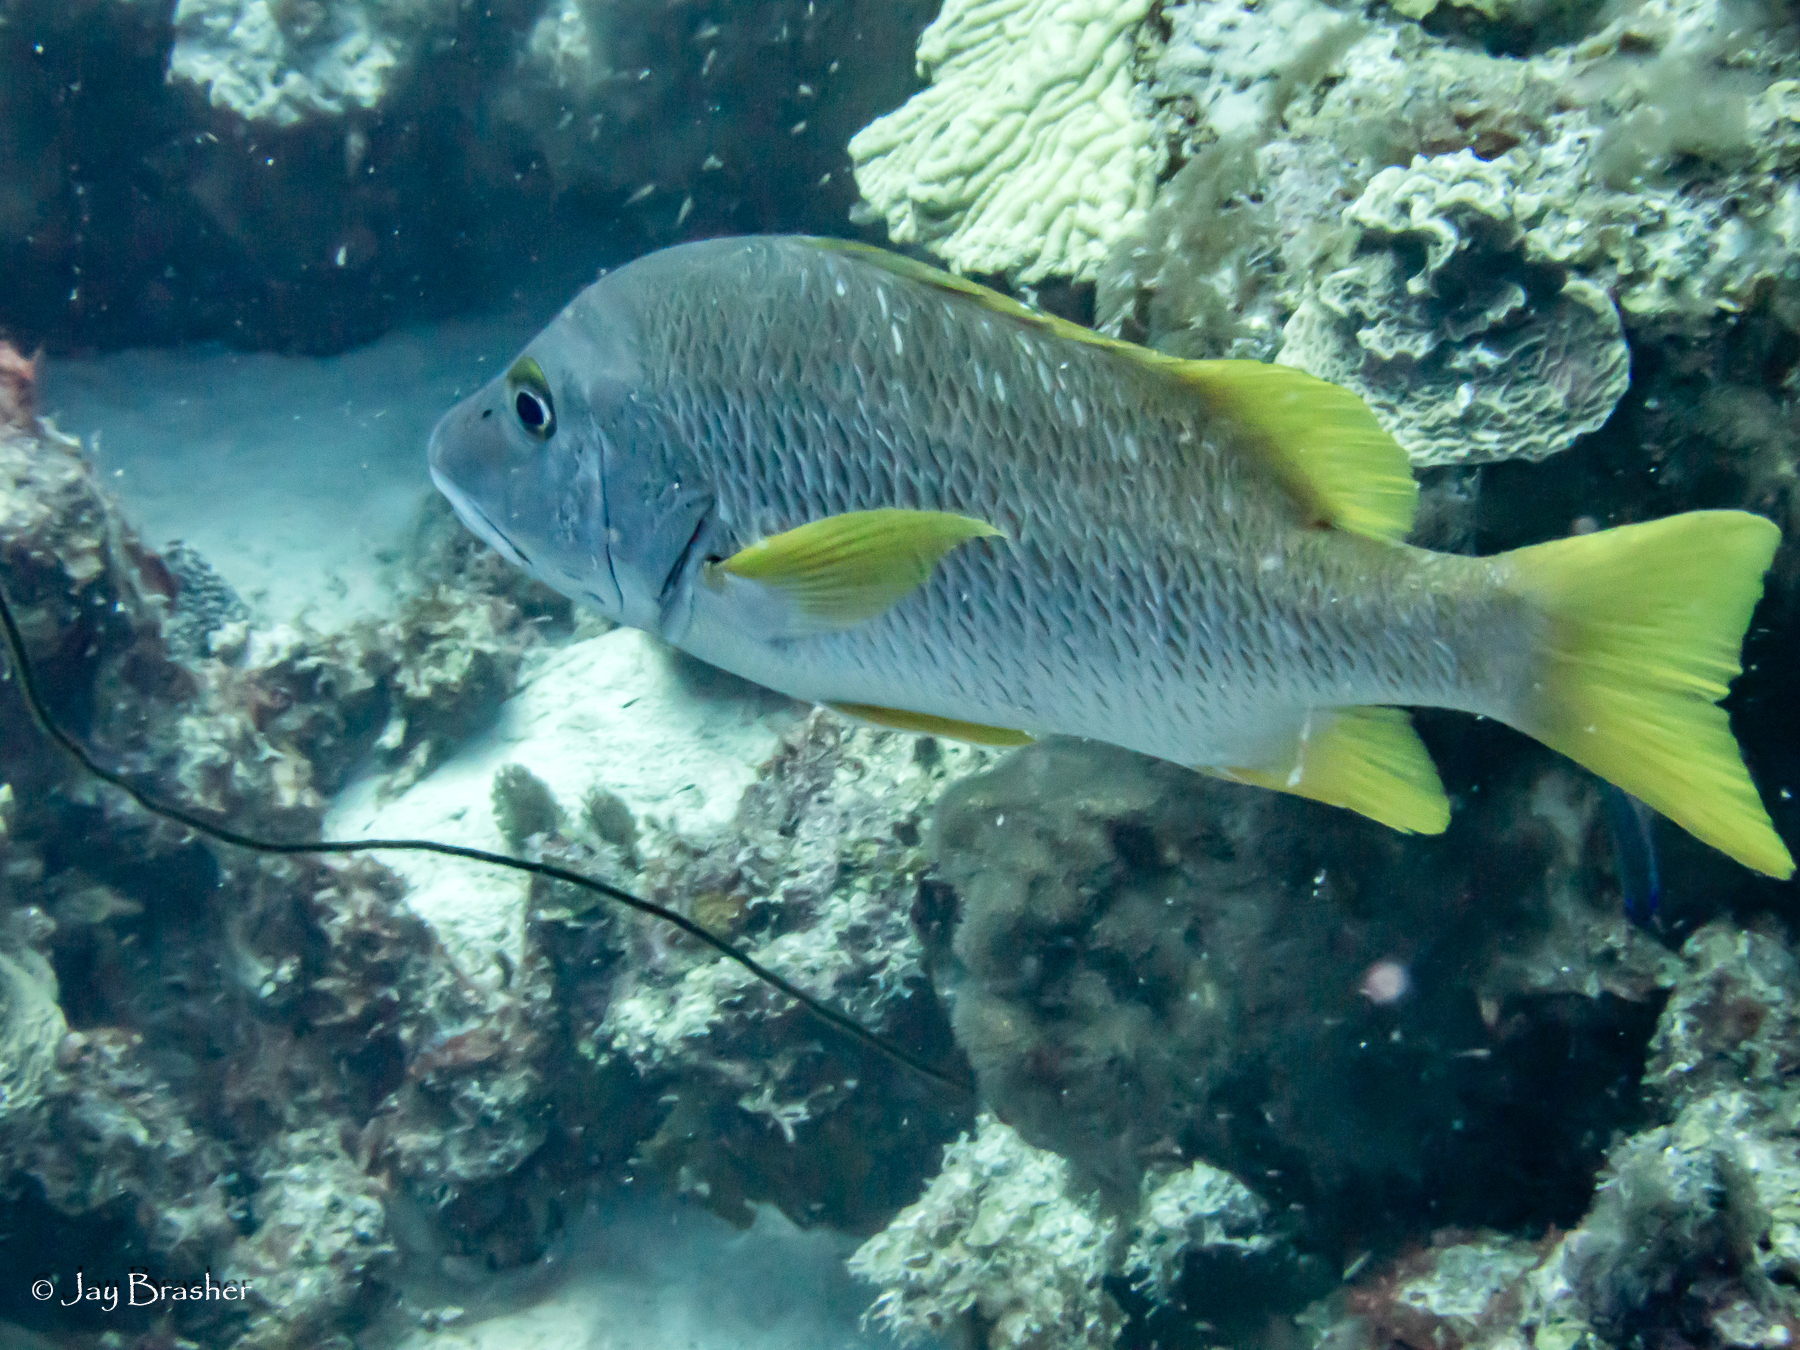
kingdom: Animalia
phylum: Chordata
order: Perciformes
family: Lutjanidae
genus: Lutjanus
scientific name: Lutjanus apodus
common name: Schoolmaster
